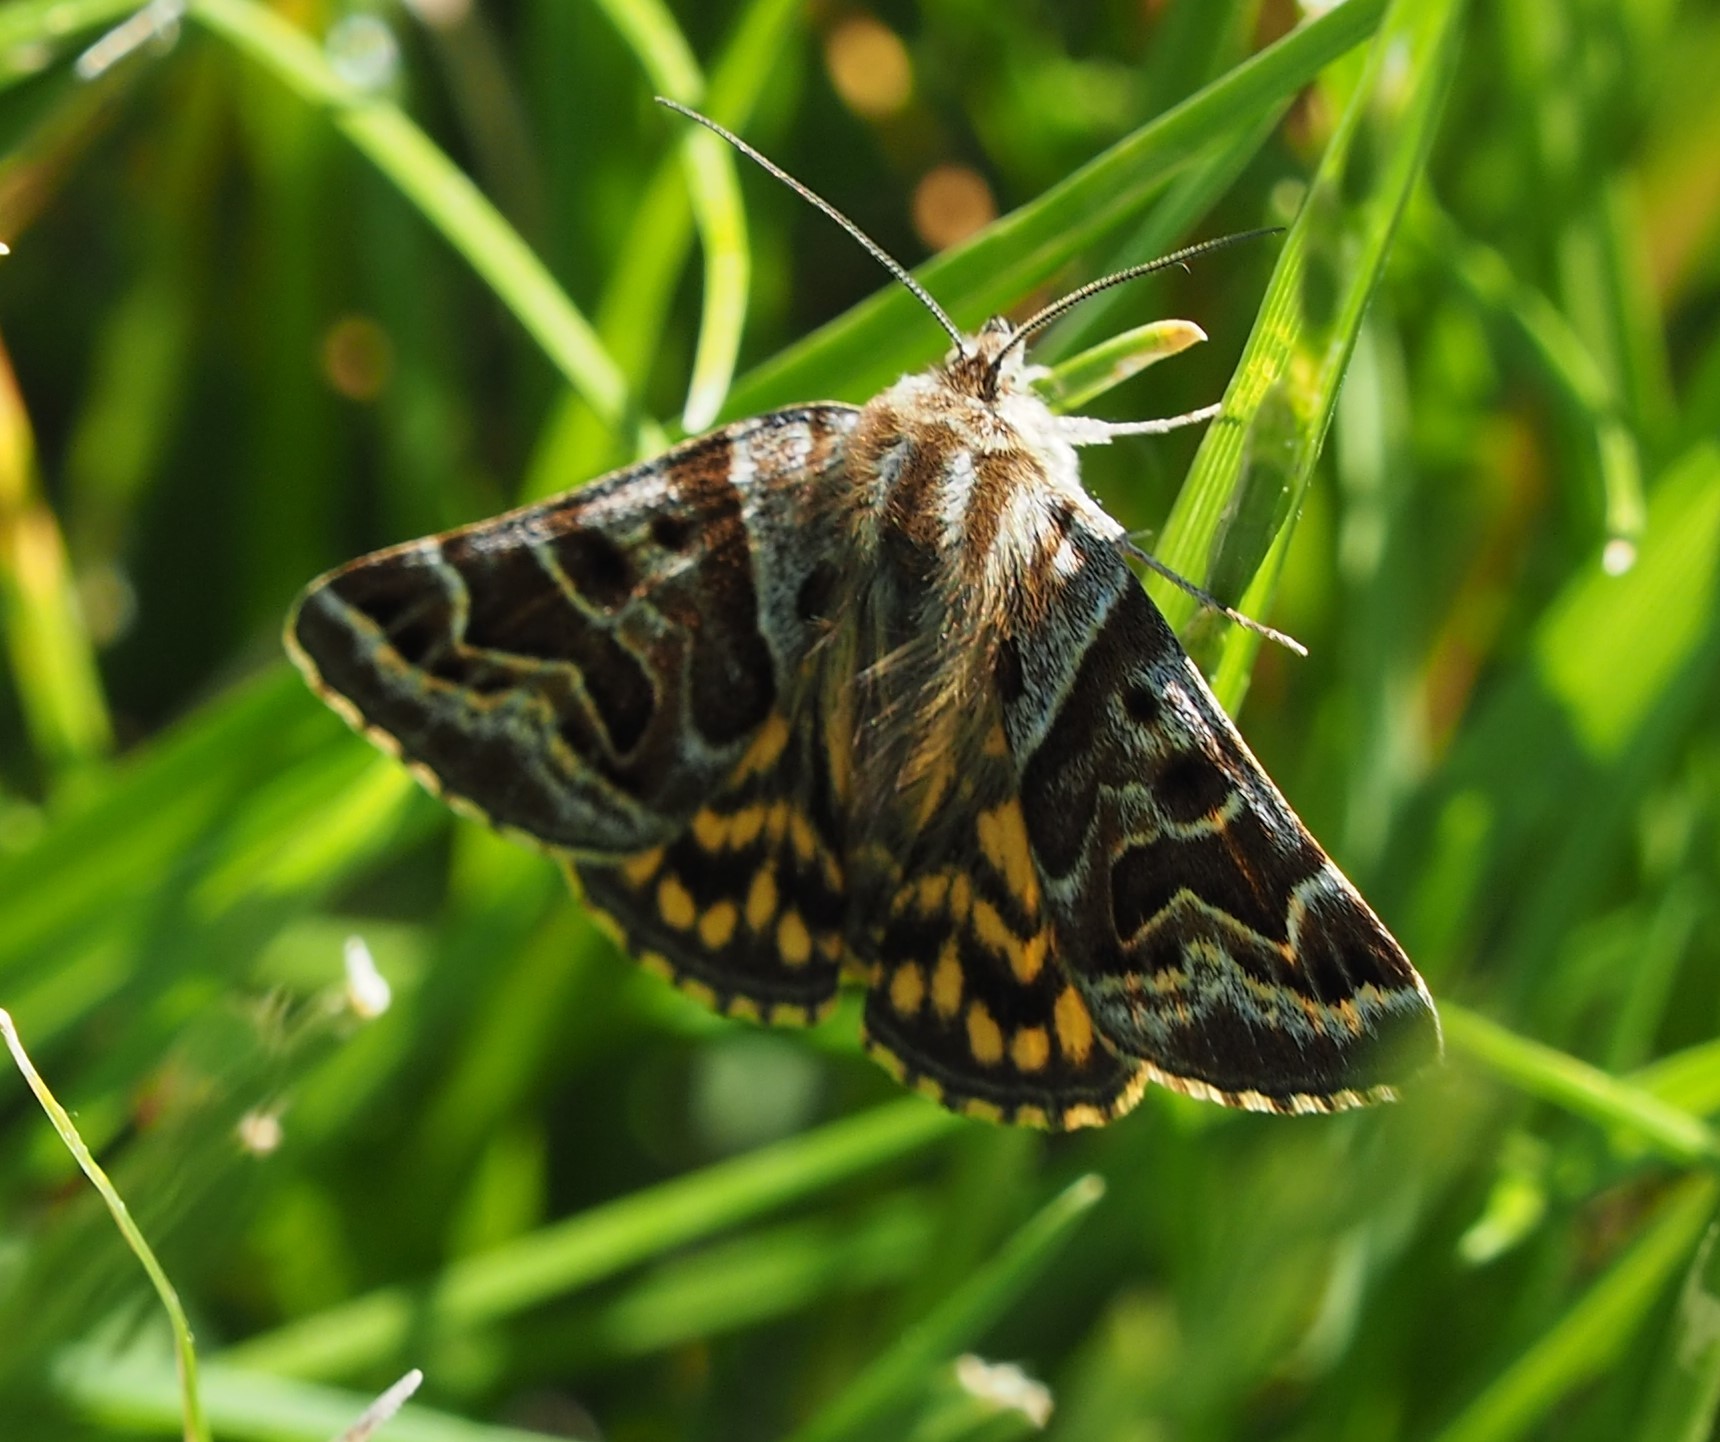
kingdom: Animalia
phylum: Arthropoda
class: Insecta
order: Lepidoptera
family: Erebidae
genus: Callistege
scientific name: Callistege mi
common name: Mother shipton
